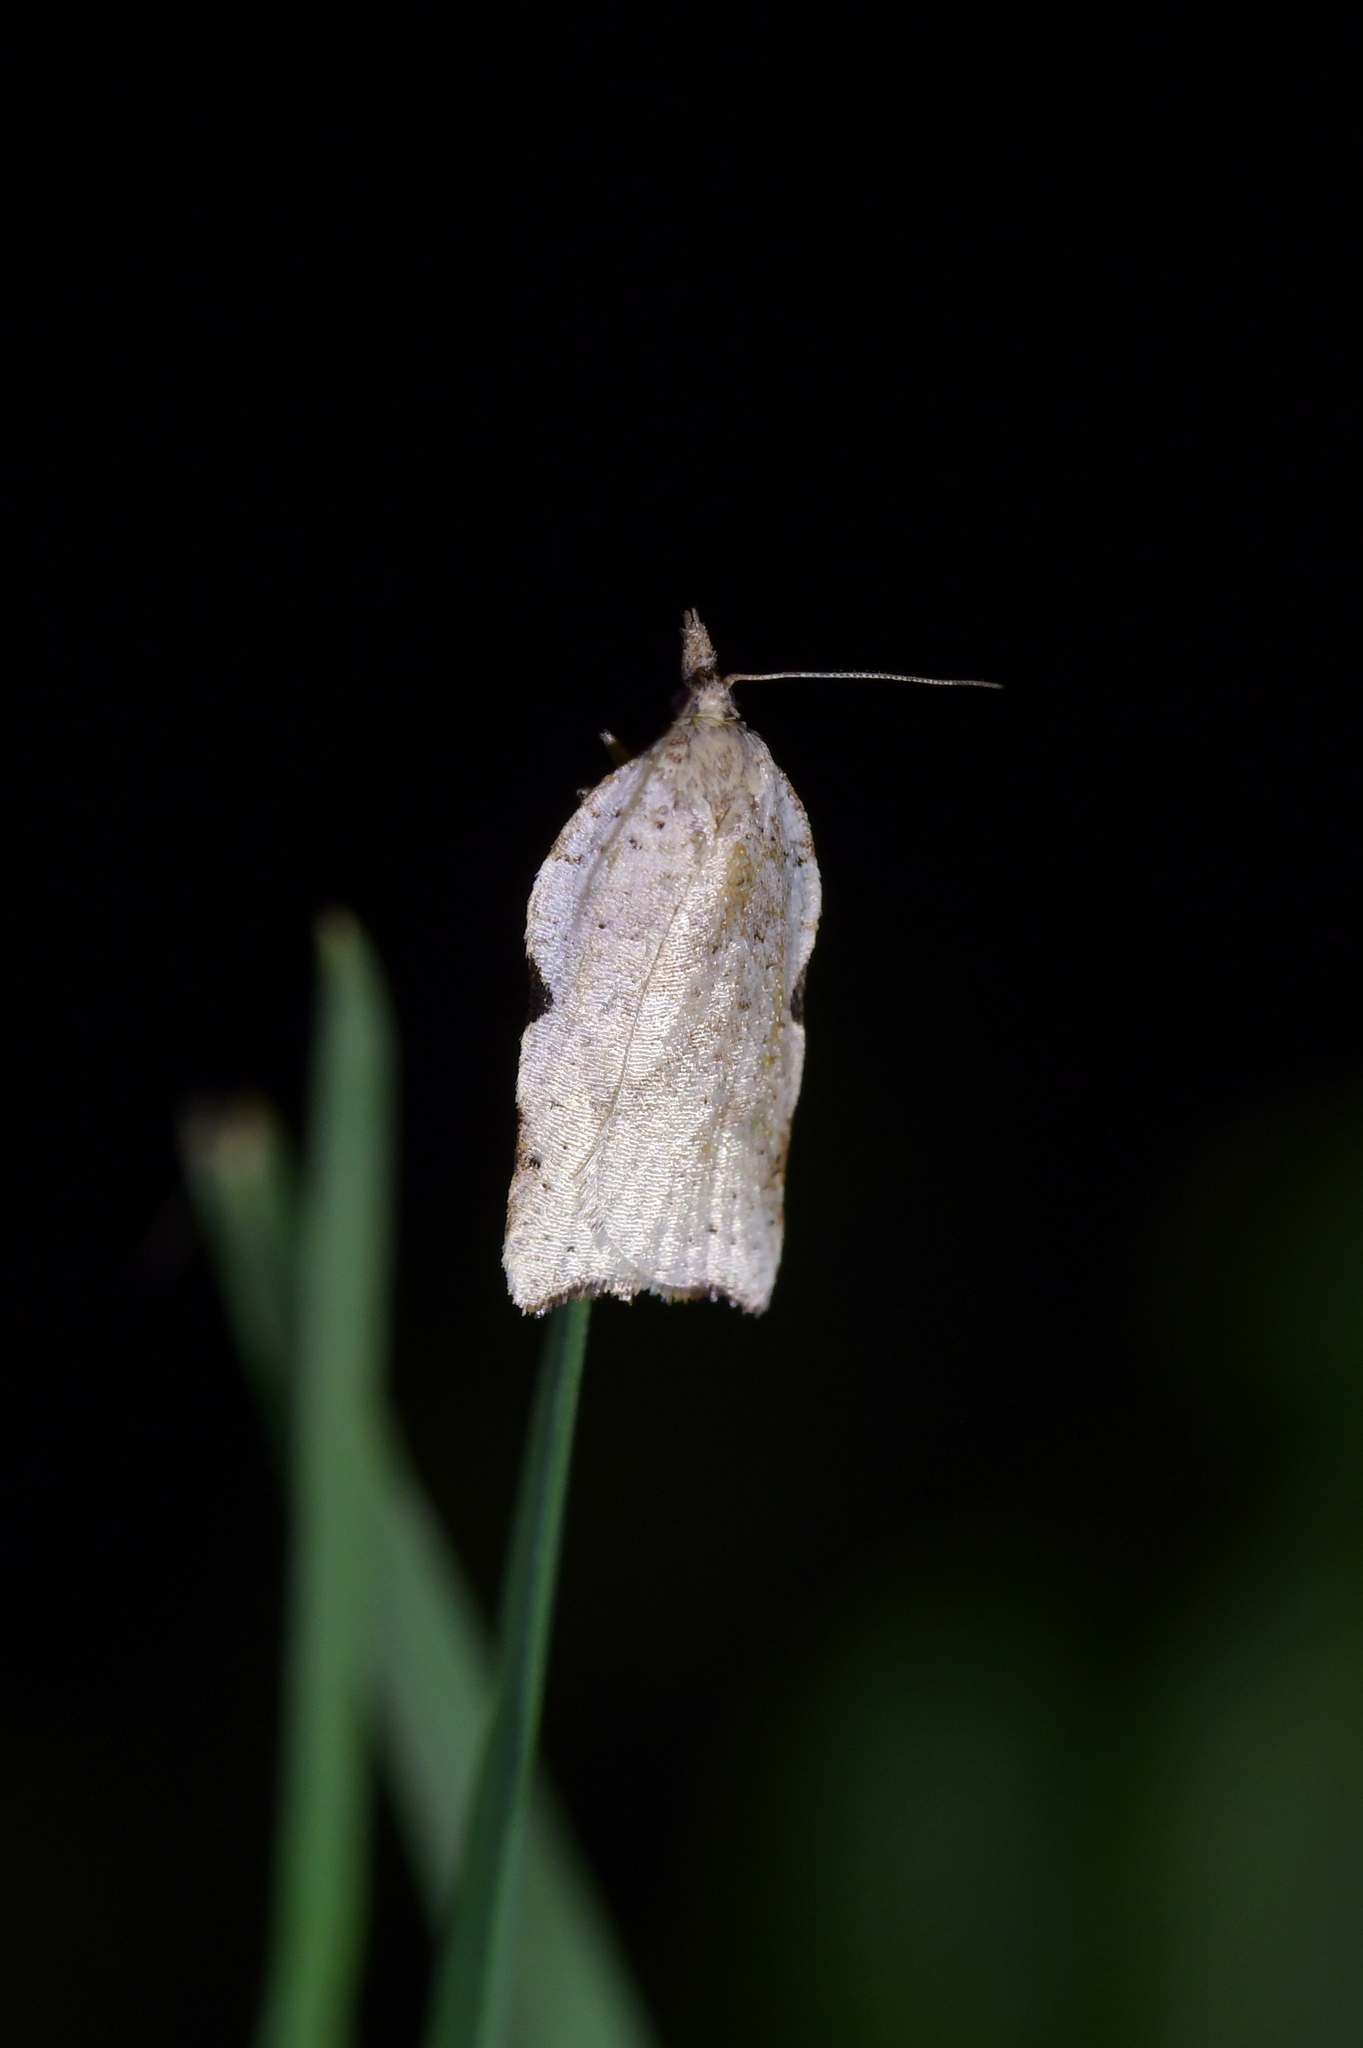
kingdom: Animalia
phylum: Arthropoda
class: Insecta
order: Lepidoptera
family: Tortricidae
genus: Apoctena
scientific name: Apoctena flavescens
